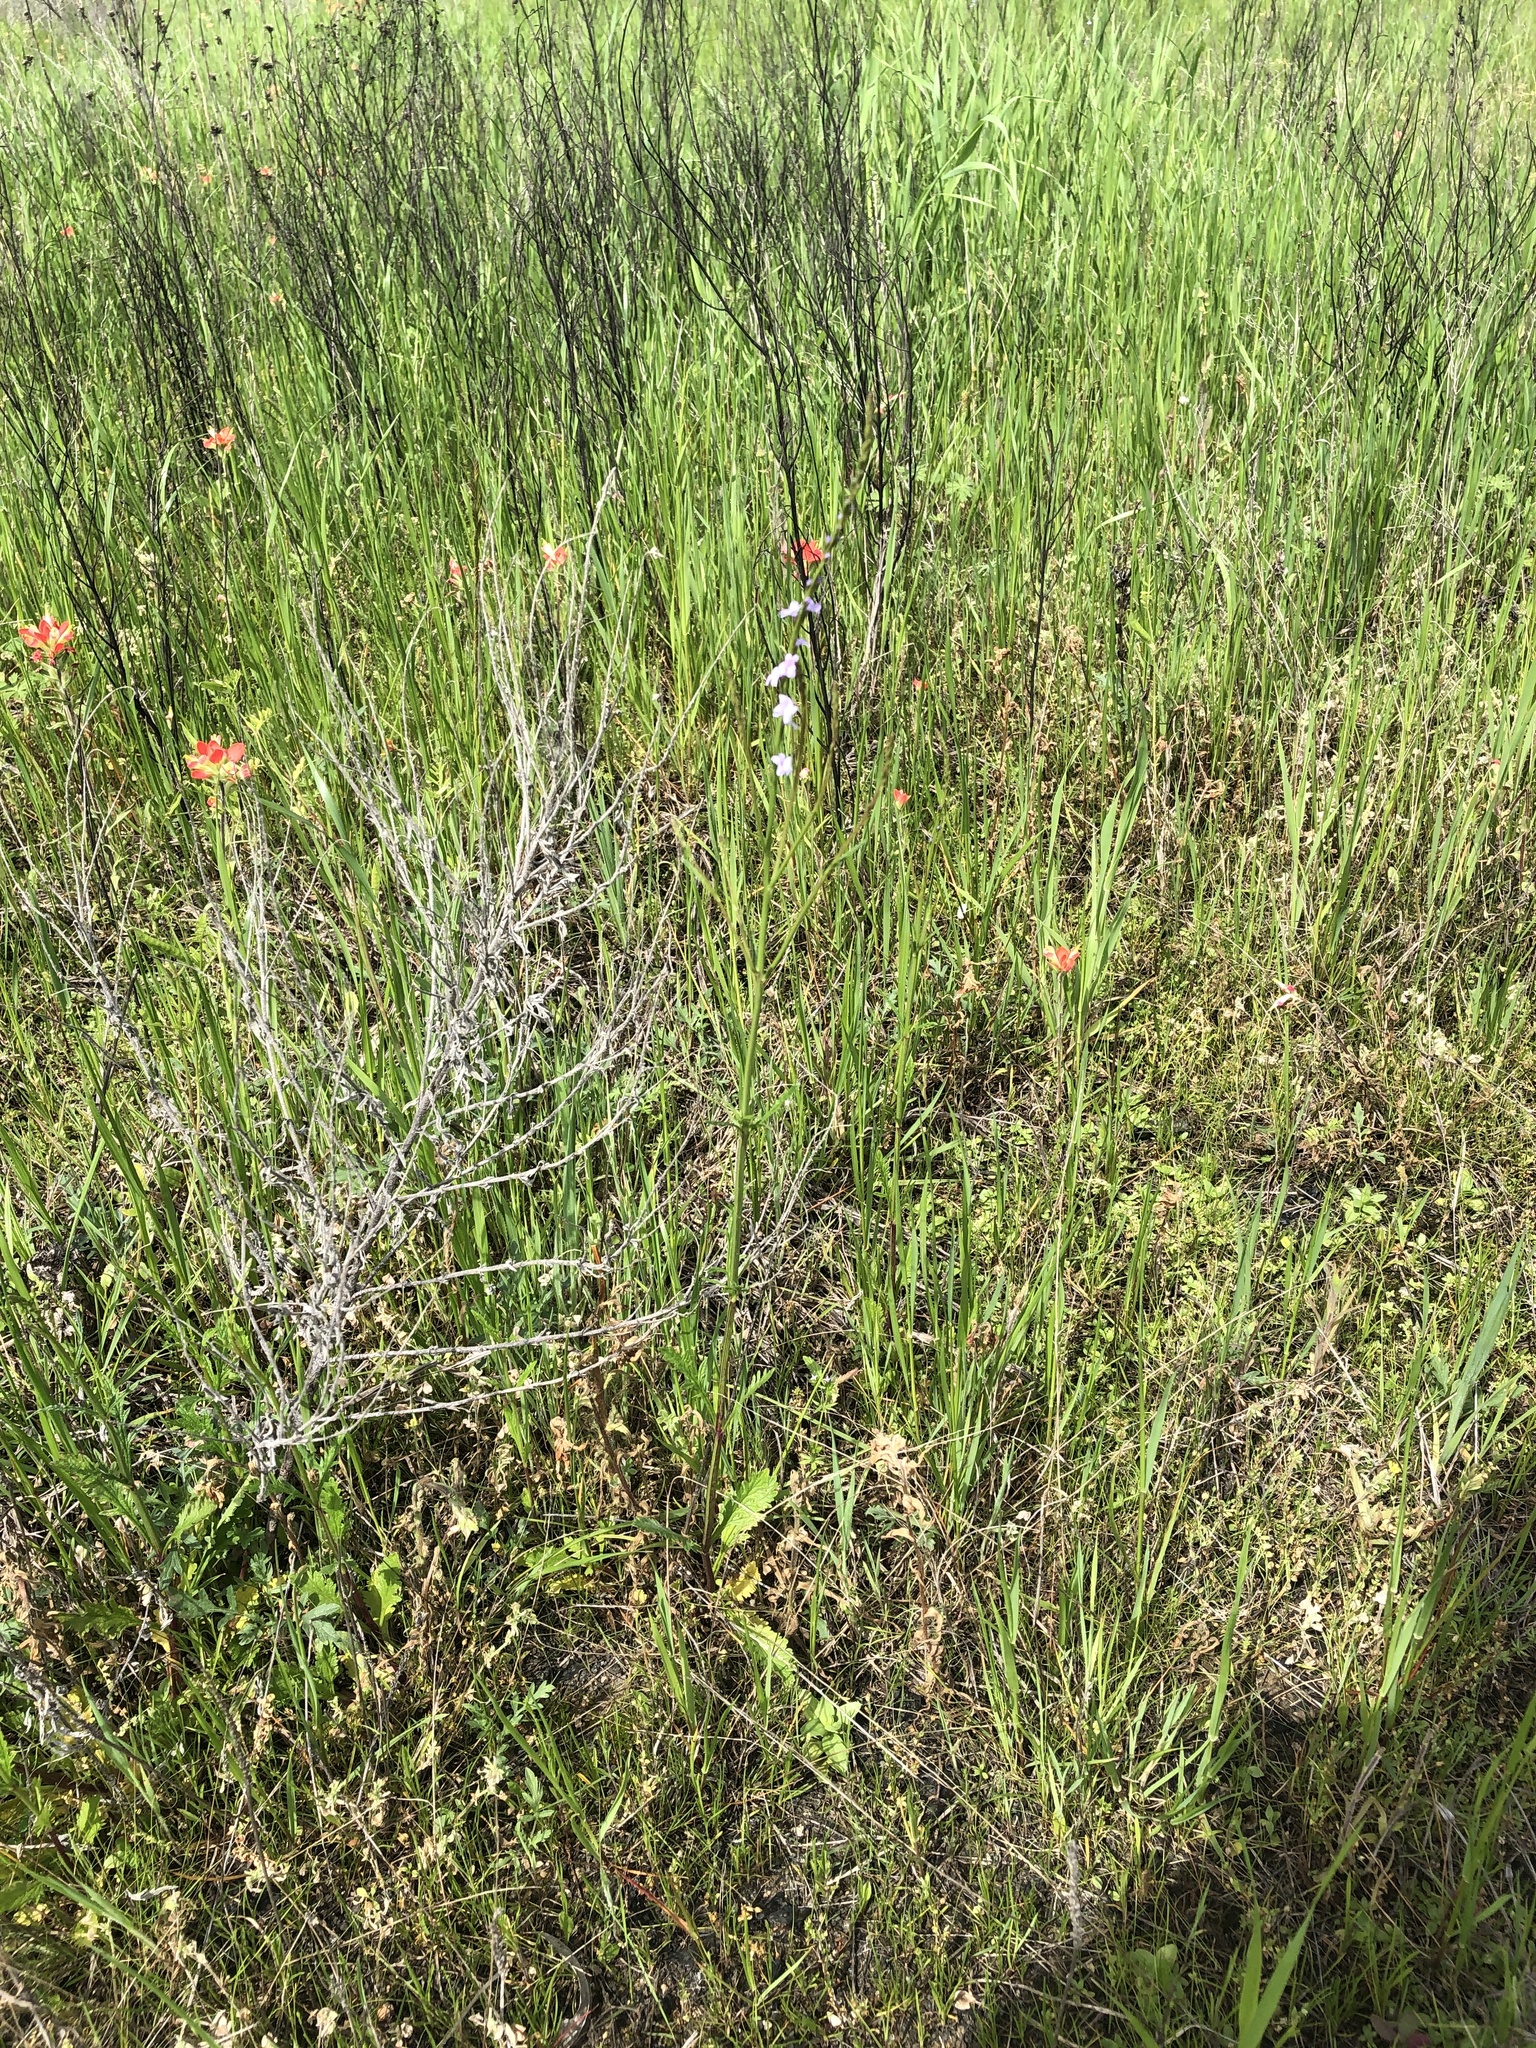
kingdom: Plantae
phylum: Tracheophyta
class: Magnoliopsida
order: Lamiales
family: Verbenaceae
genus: Verbena
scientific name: Verbena halei
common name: Texas vervain
